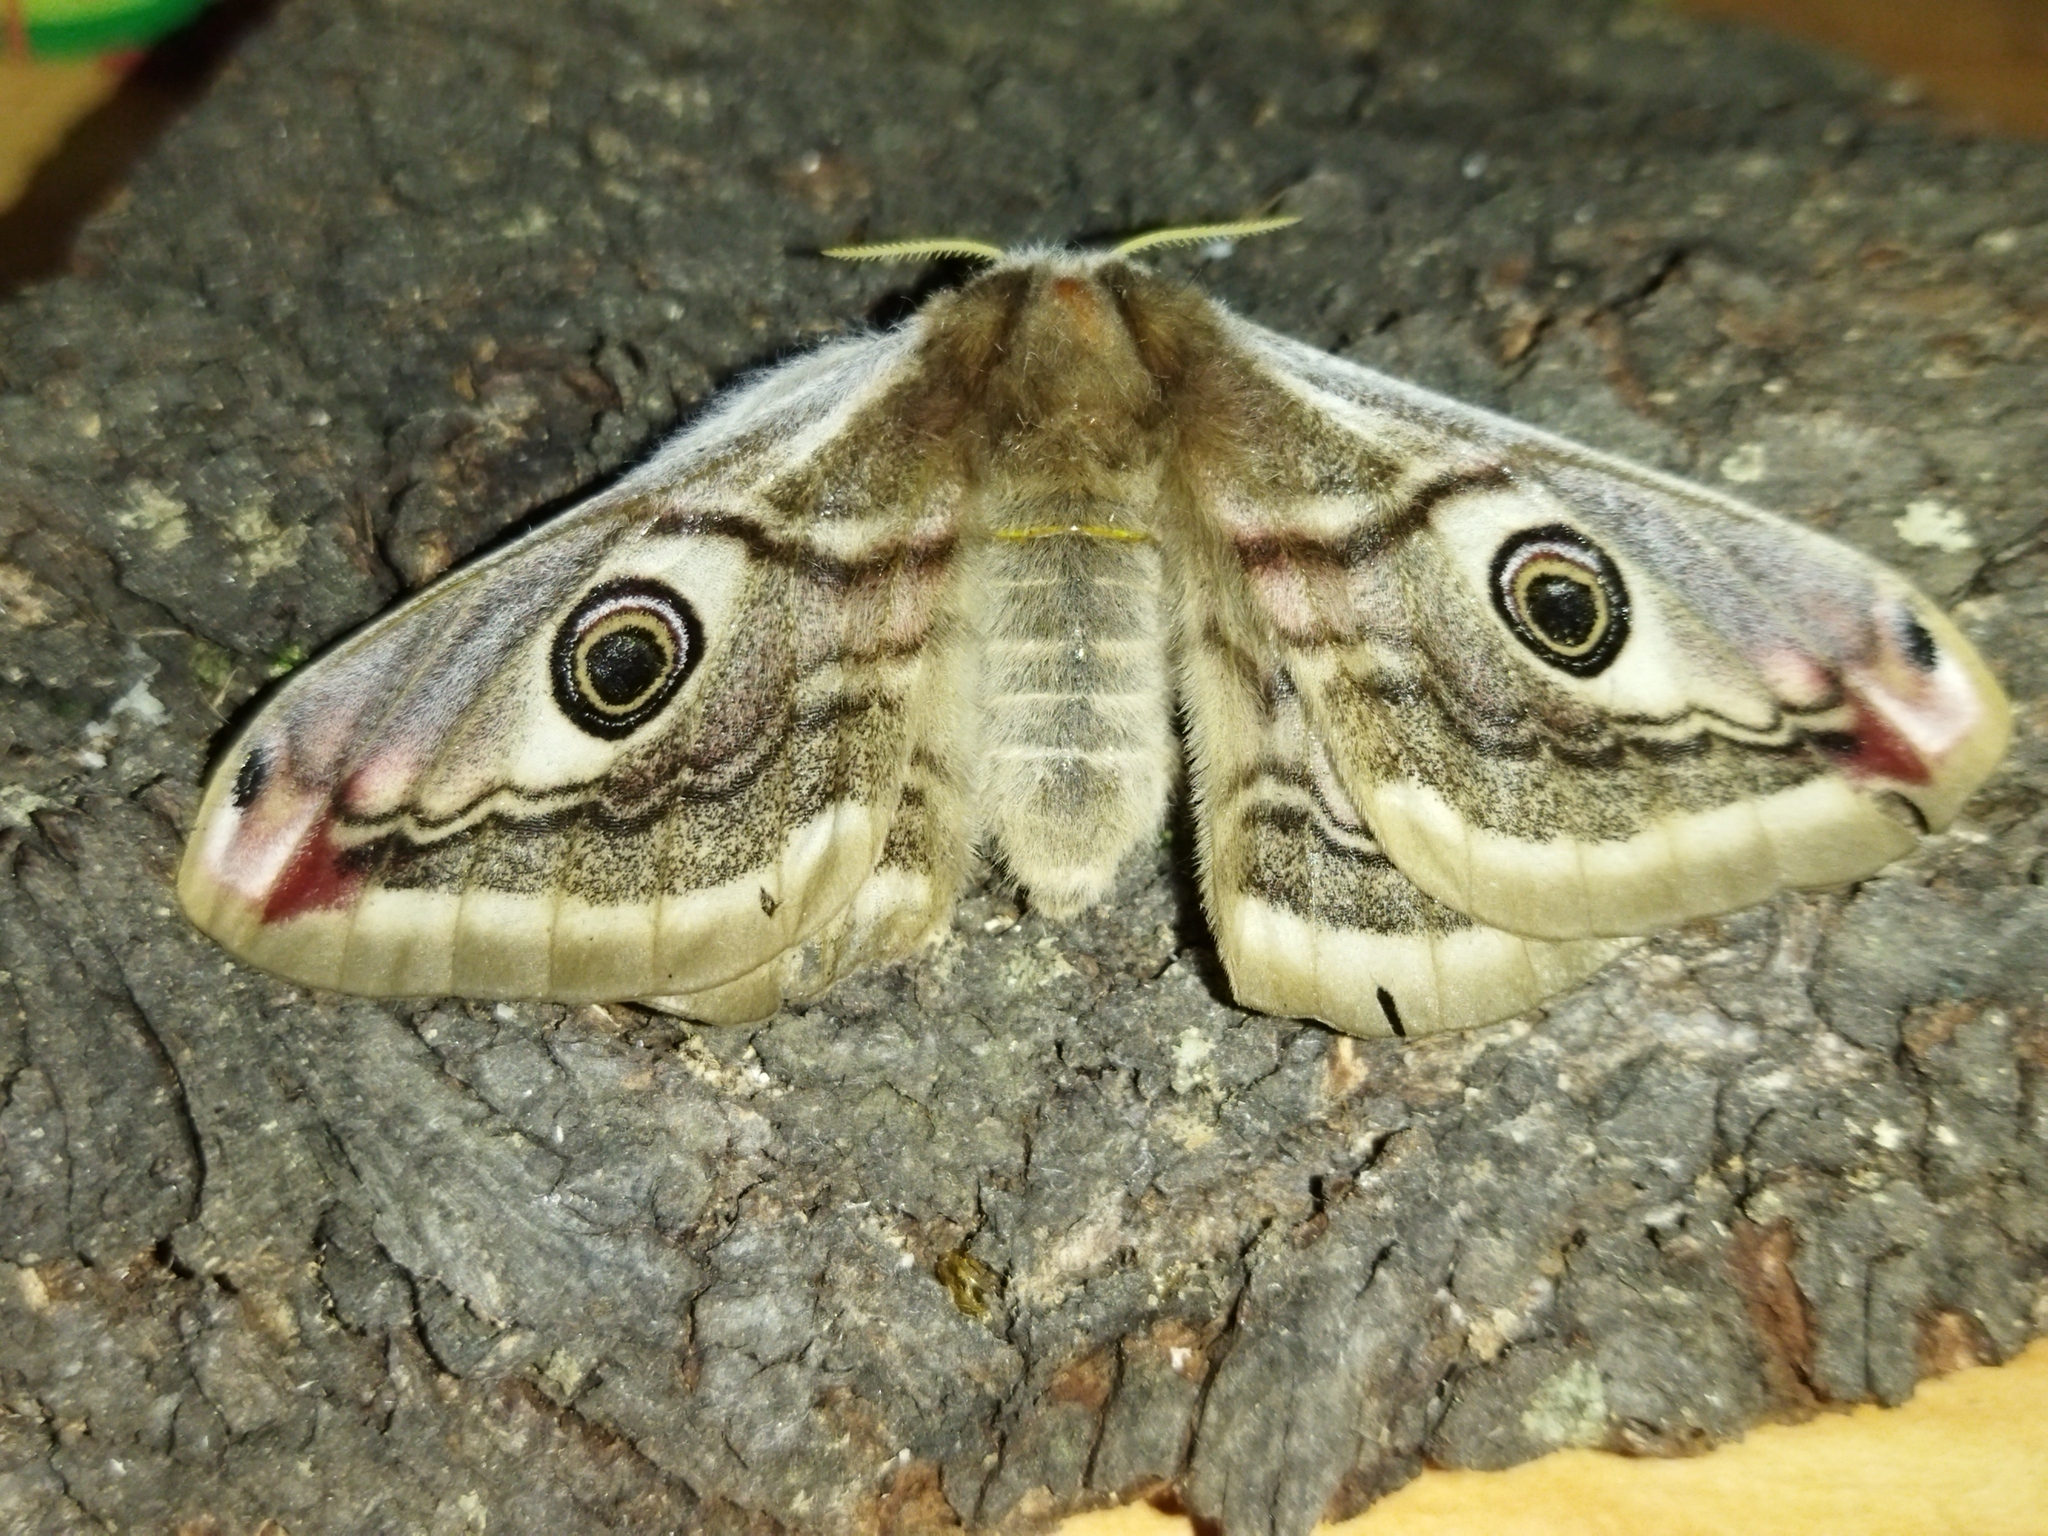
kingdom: Animalia
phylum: Arthropoda
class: Insecta
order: Lepidoptera
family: Saturniidae
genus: Saturnia
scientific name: Saturnia pavoniella
